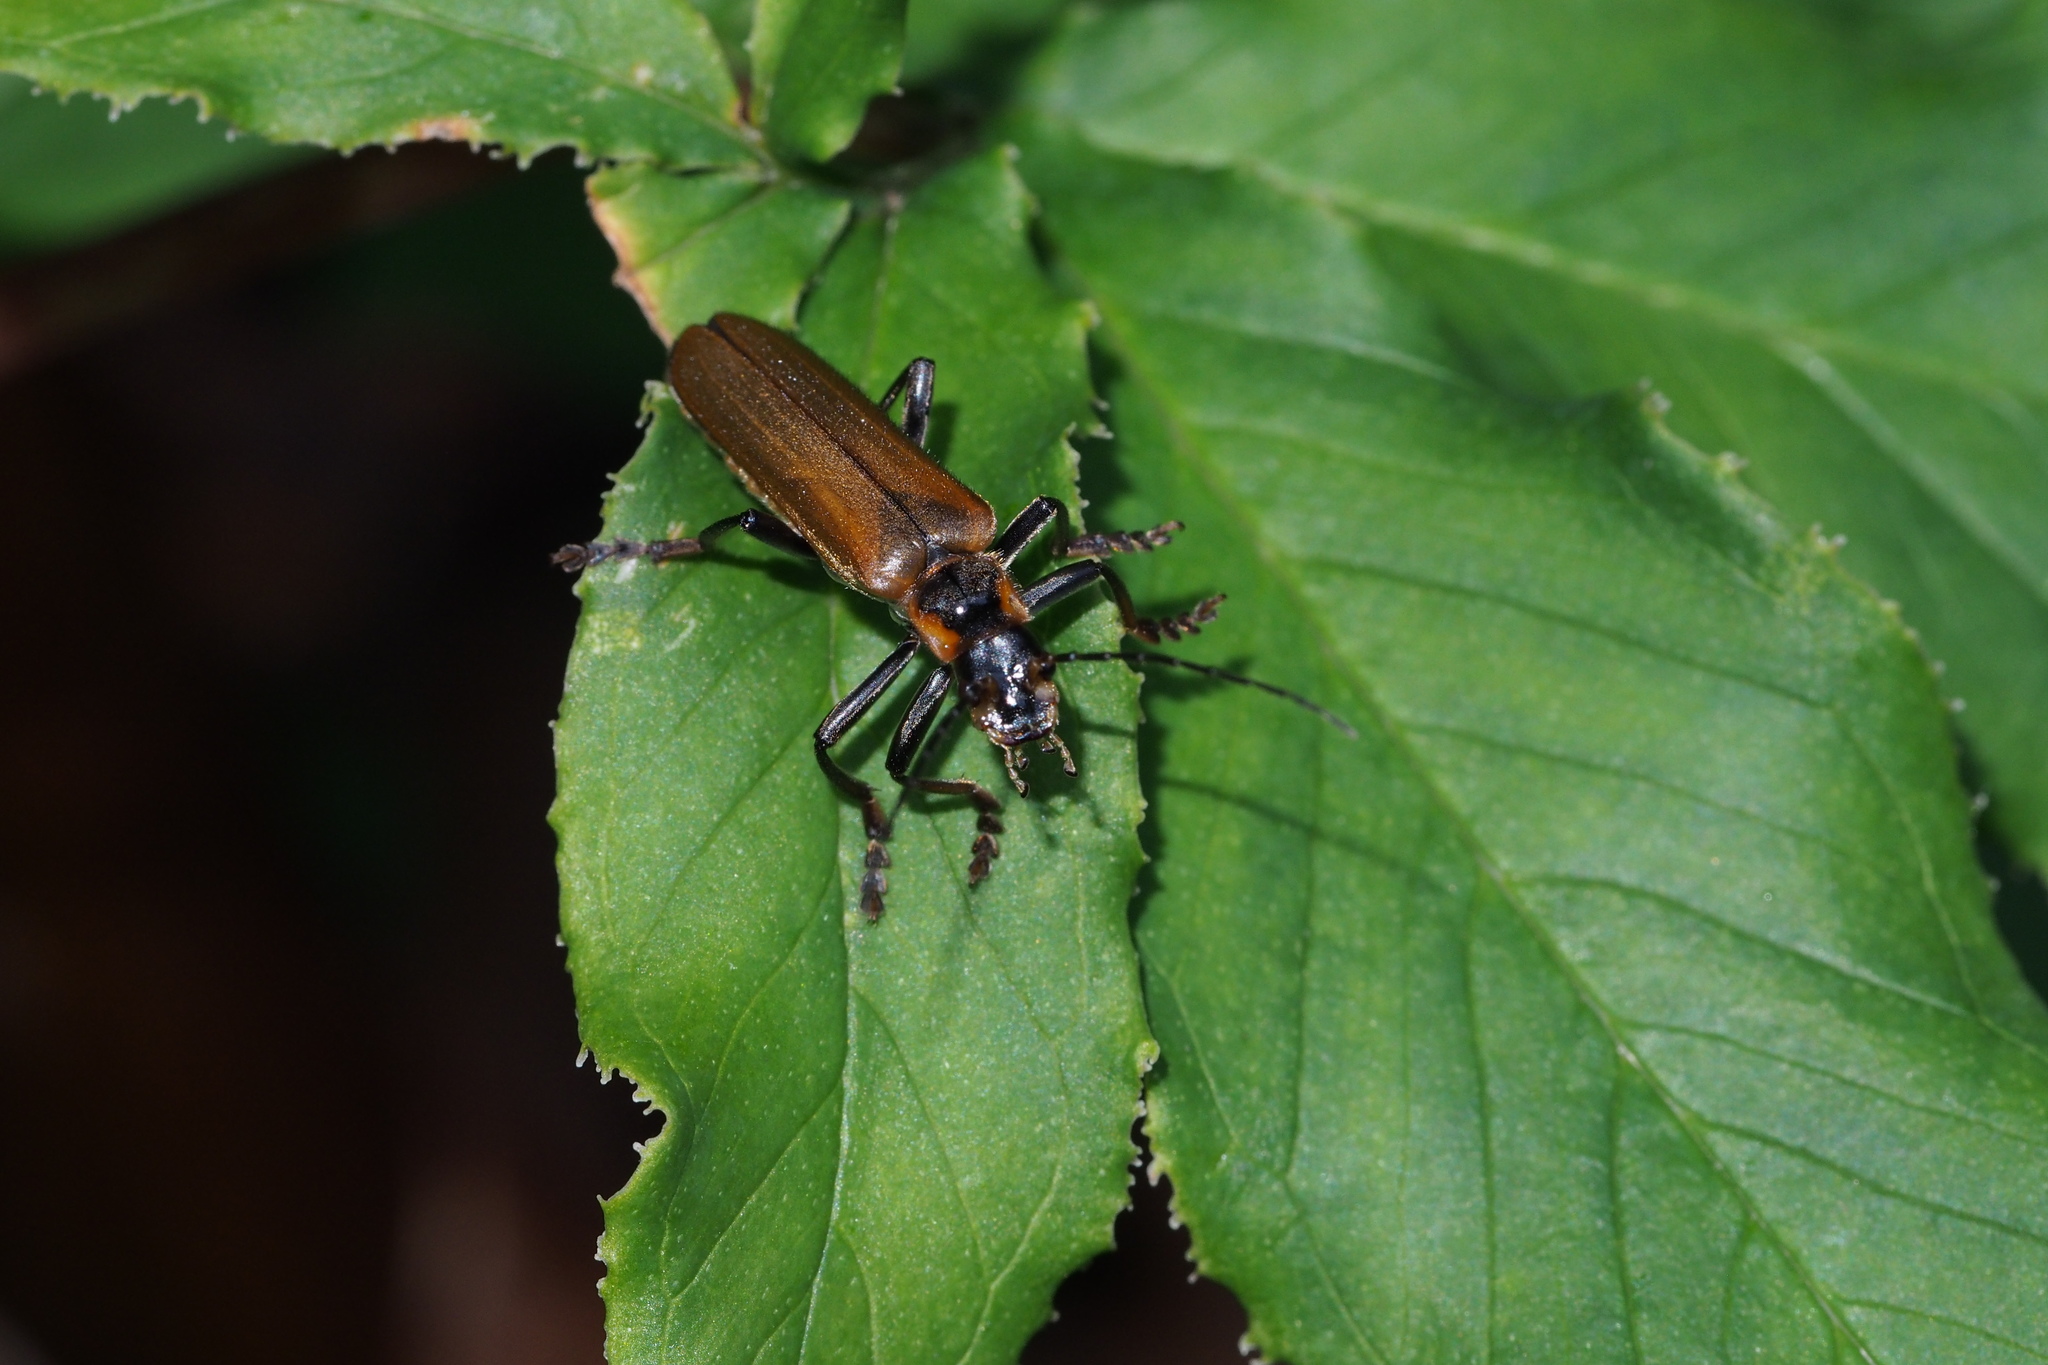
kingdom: Animalia
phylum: Arthropoda
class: Insecta
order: Coleoptera
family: Cantharidae
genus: Lycocerus
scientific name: Lycocerus suturellus
